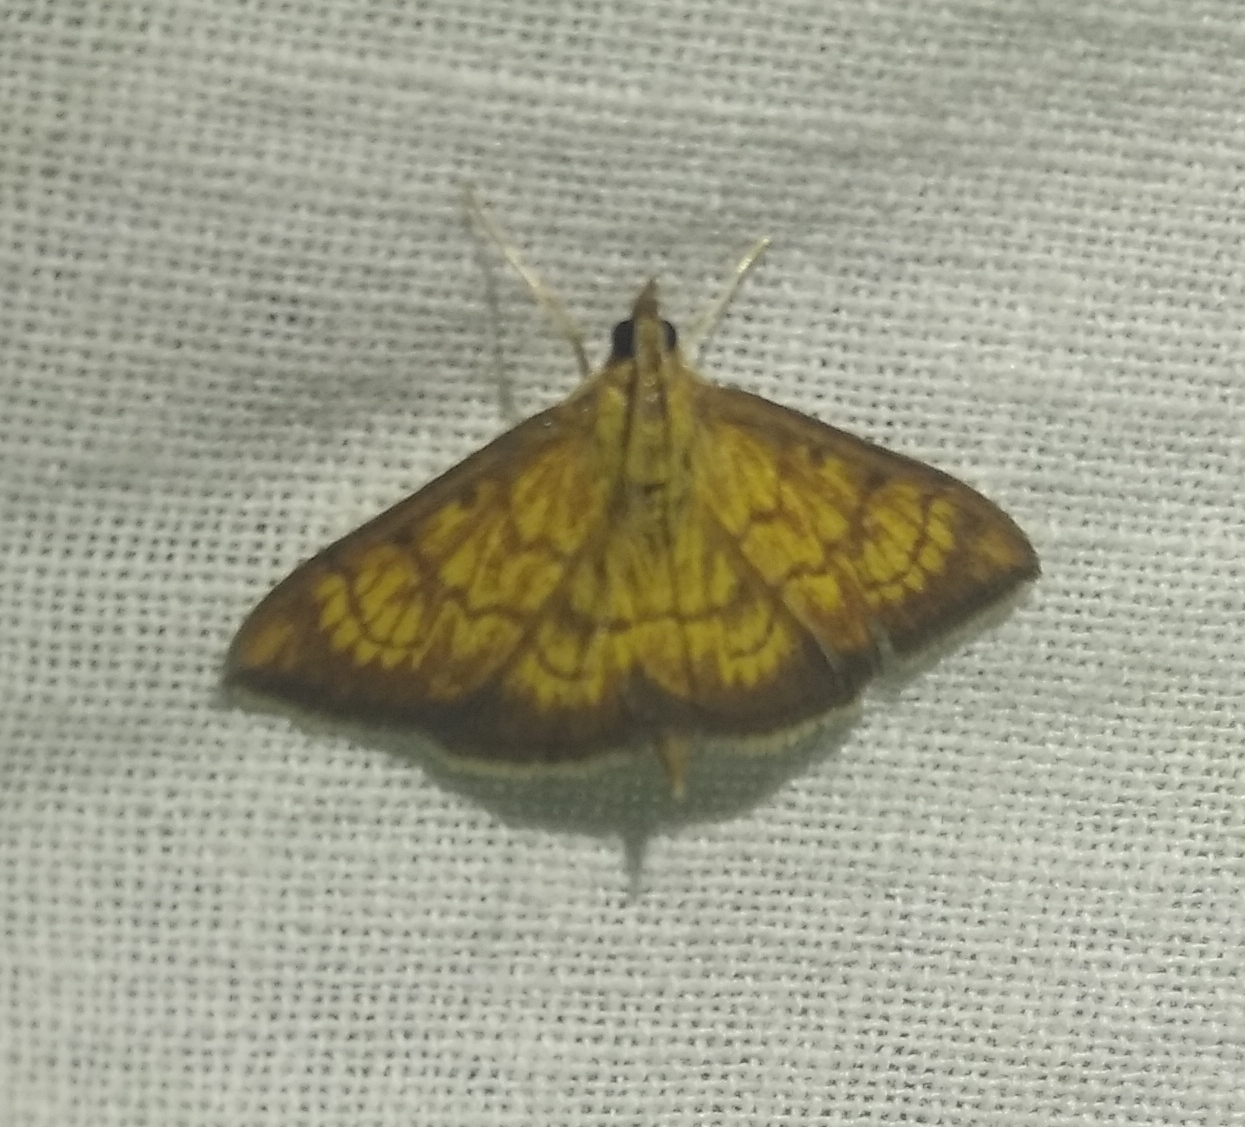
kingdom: Animalia
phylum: Arthropoda
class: Insecta
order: Lepidoptera
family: Crambidae
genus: Ecpyrrhorrhoe
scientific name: Ecpyrrhorrhoe rubiginalis
